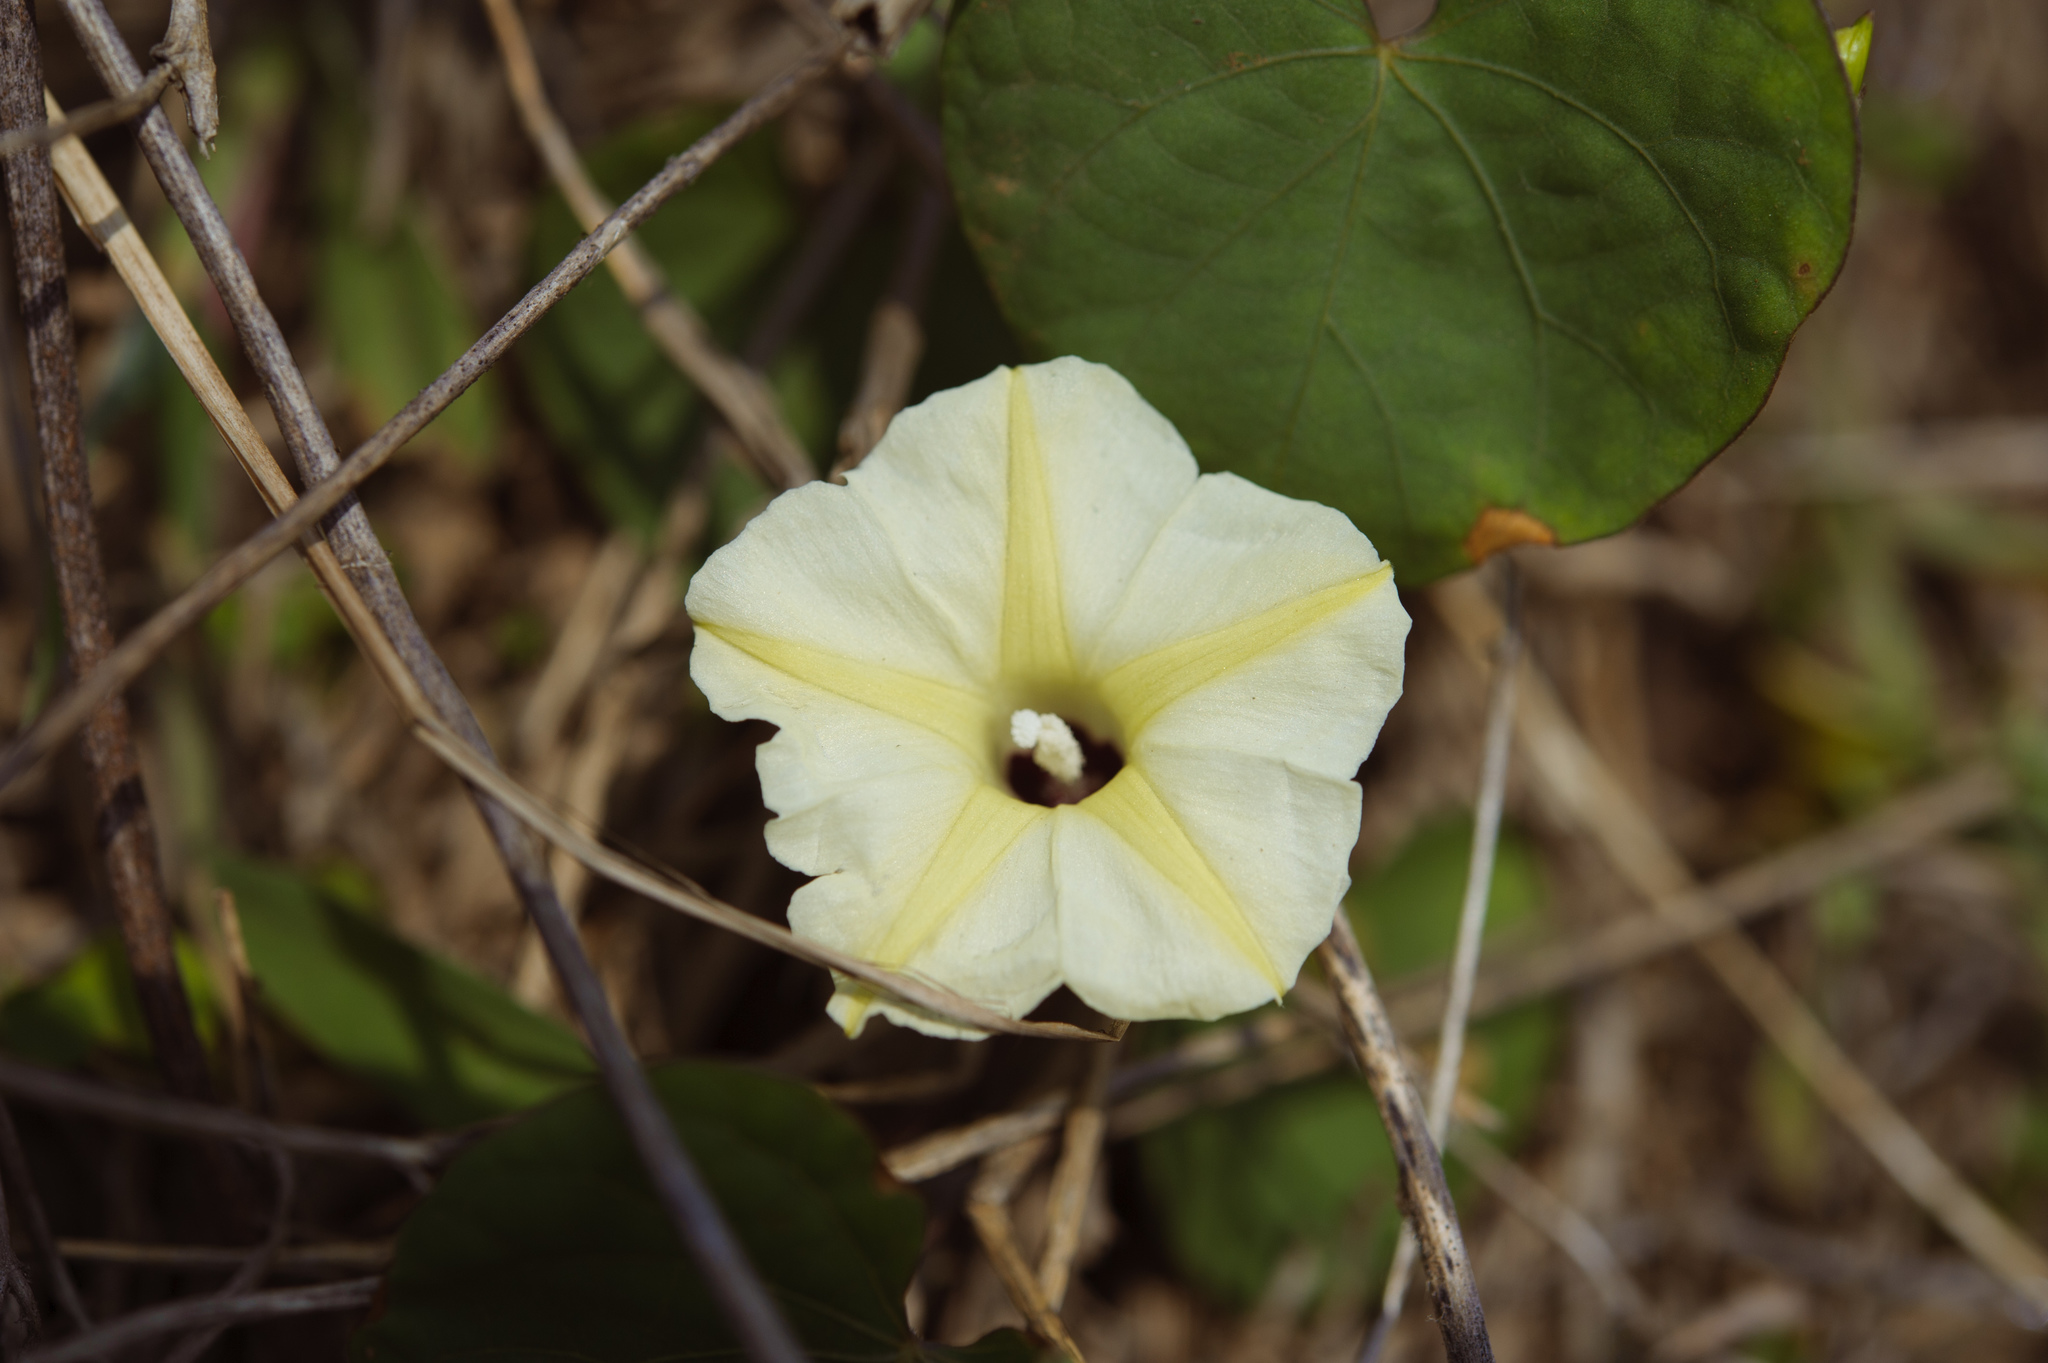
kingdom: Plantae
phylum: Tracheophyta
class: Magnoliopsida
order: Solanales
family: Convolvulaceae
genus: Ipomoea
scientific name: Ipomoea obscura
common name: Obscure morning-glory
